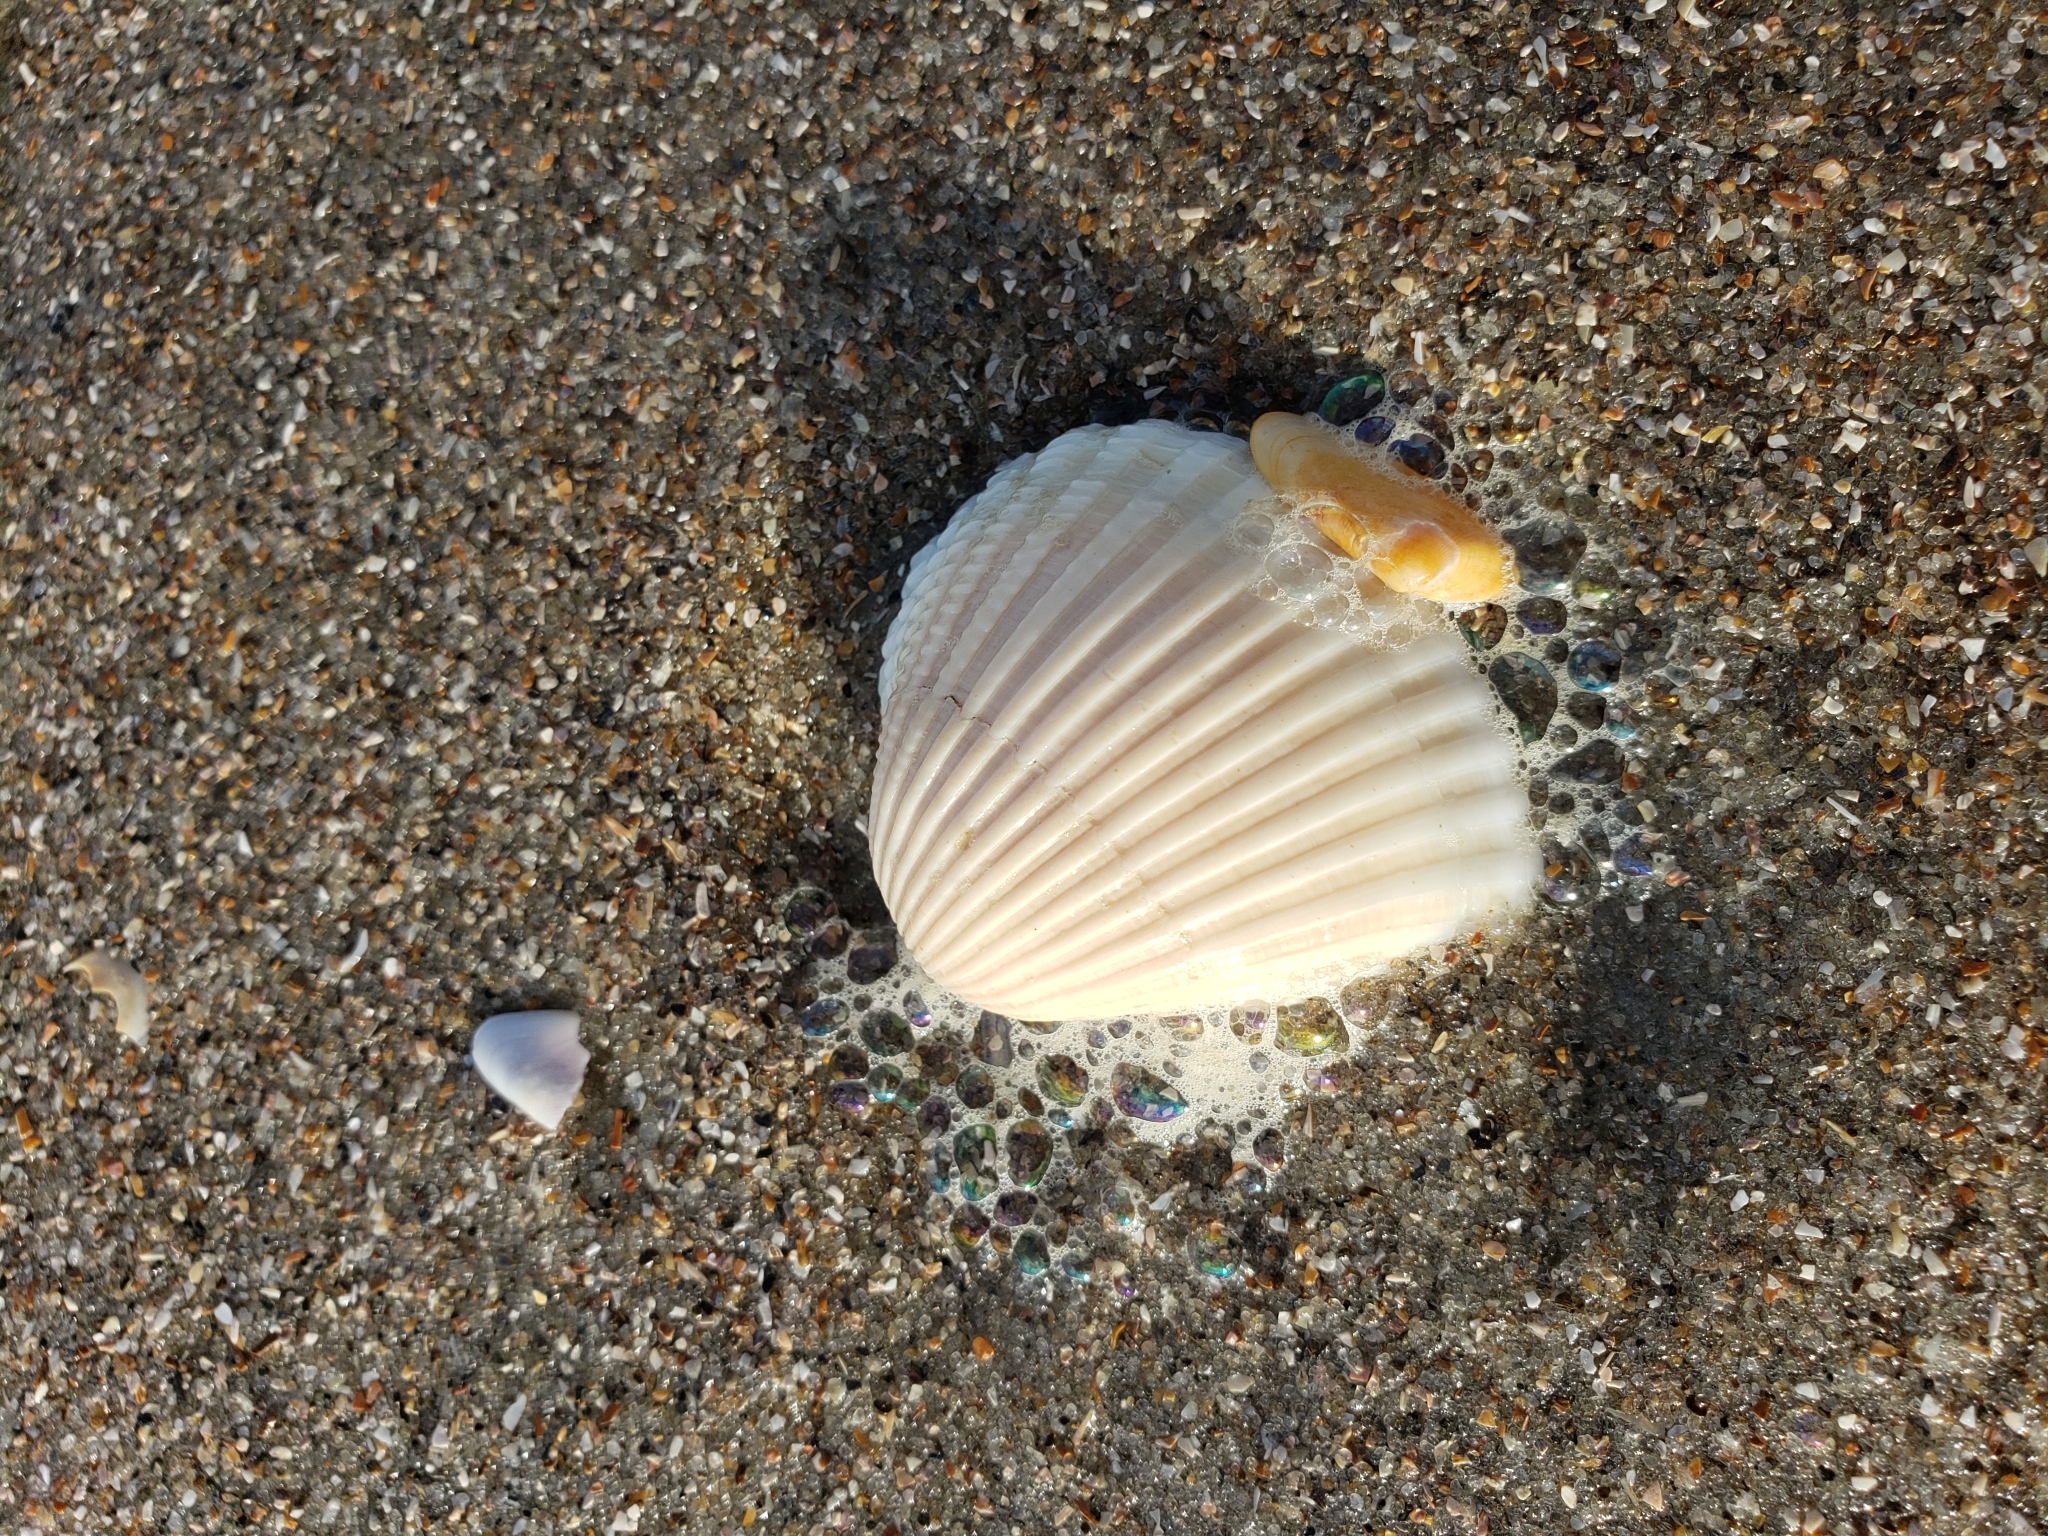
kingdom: Animalia
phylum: Mollusca
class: Bivalvia
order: Arcida
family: Arcidae
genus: Anadara
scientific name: Anadara brasiliana
